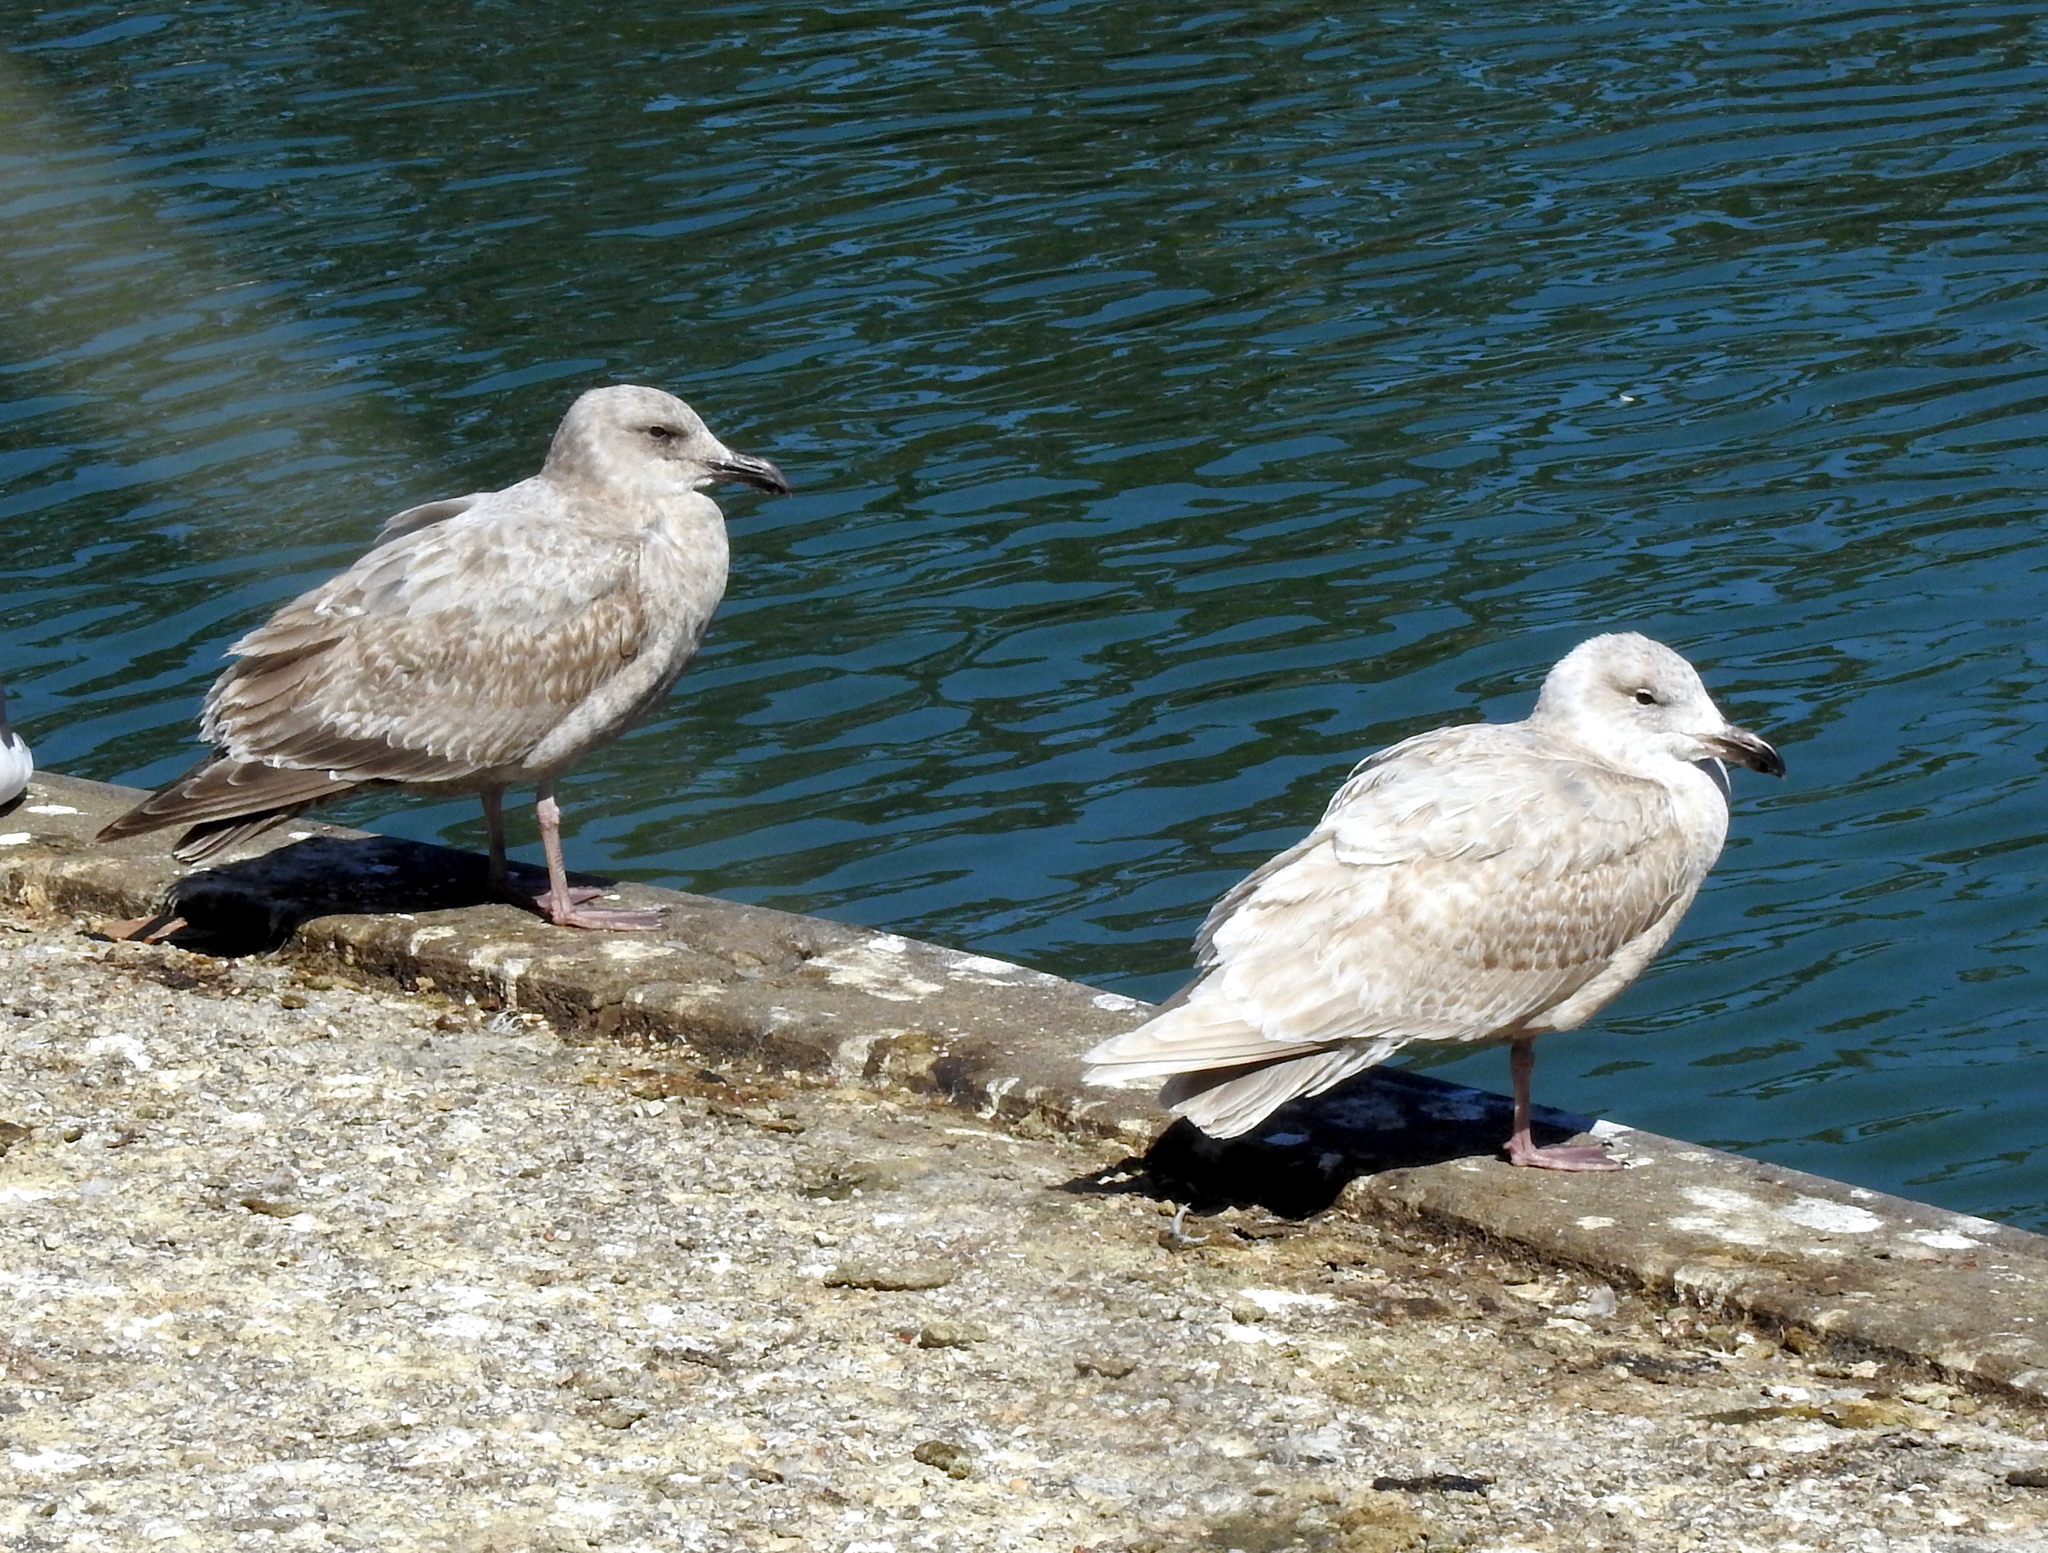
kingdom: Animalia
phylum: Chordata
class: Aves
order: Charadriiformes
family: Laridae
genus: Larus
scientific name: Larus glaucescens
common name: Glaucous-winged gull
